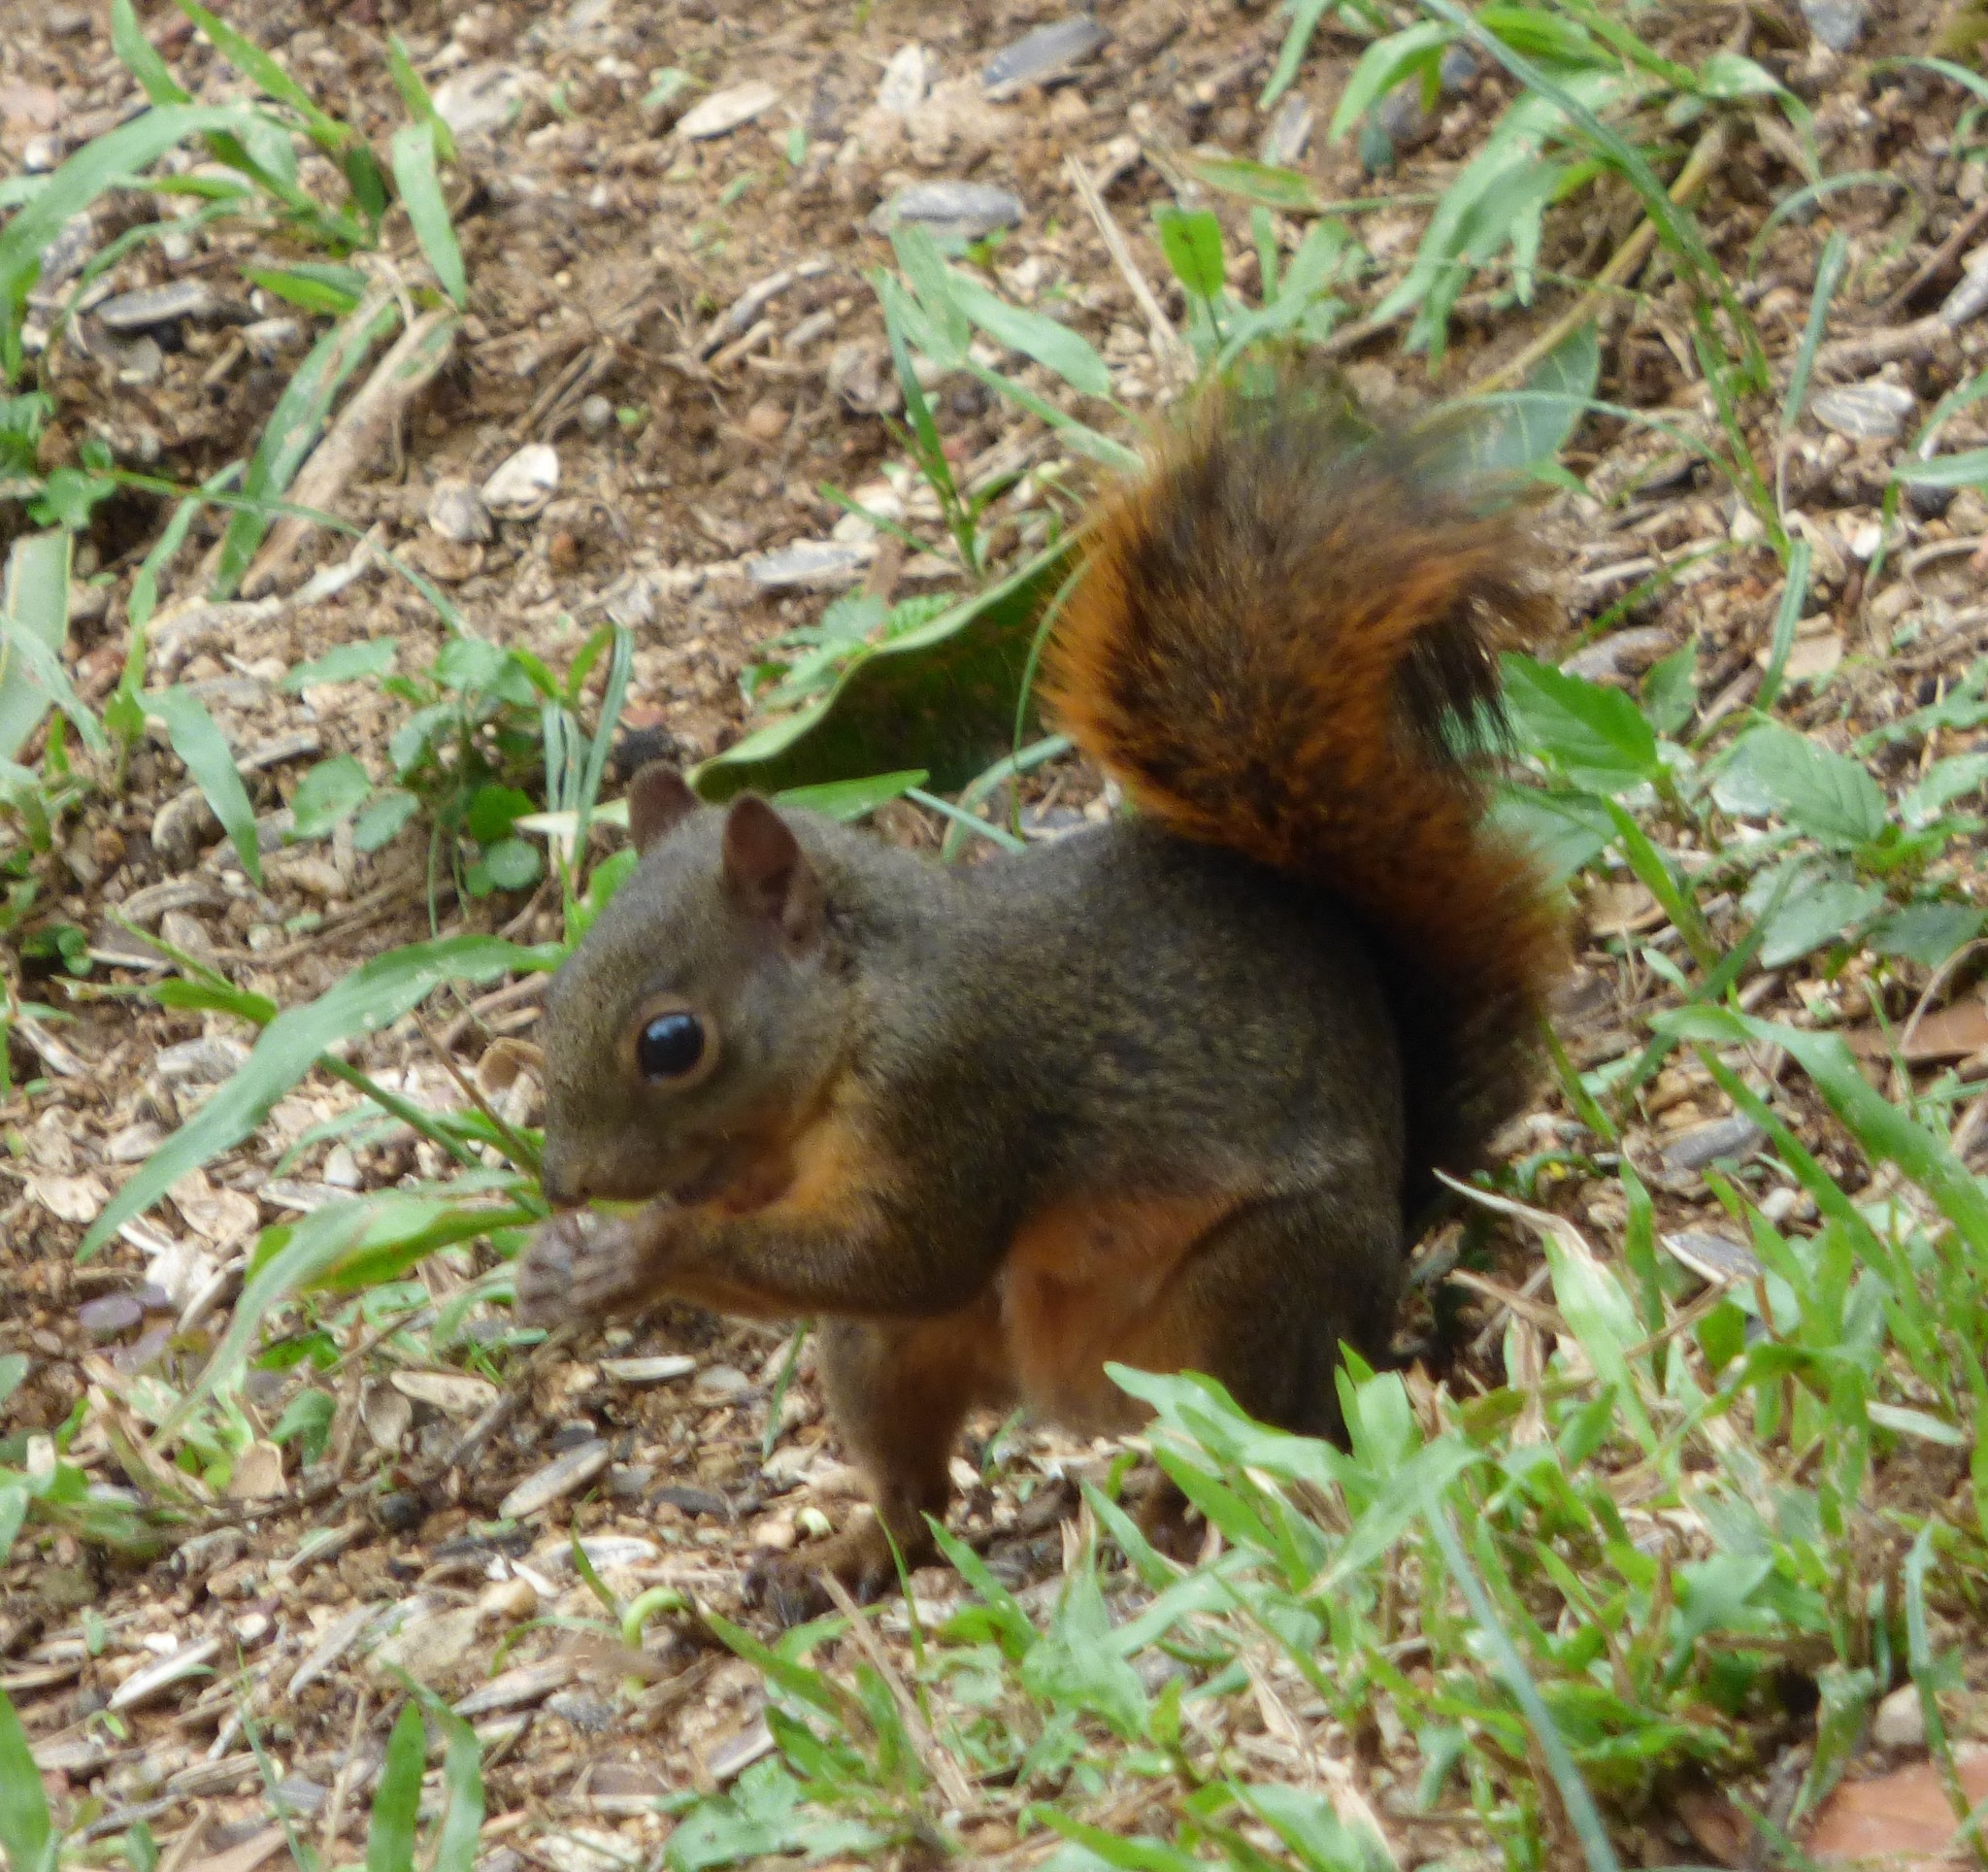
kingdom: Animalia
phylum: Chordata
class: Mammalia
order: Rodentia
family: Sciuridae
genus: Sciurus
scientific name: Sciurus granatensis
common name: Red-tailed squirrel
